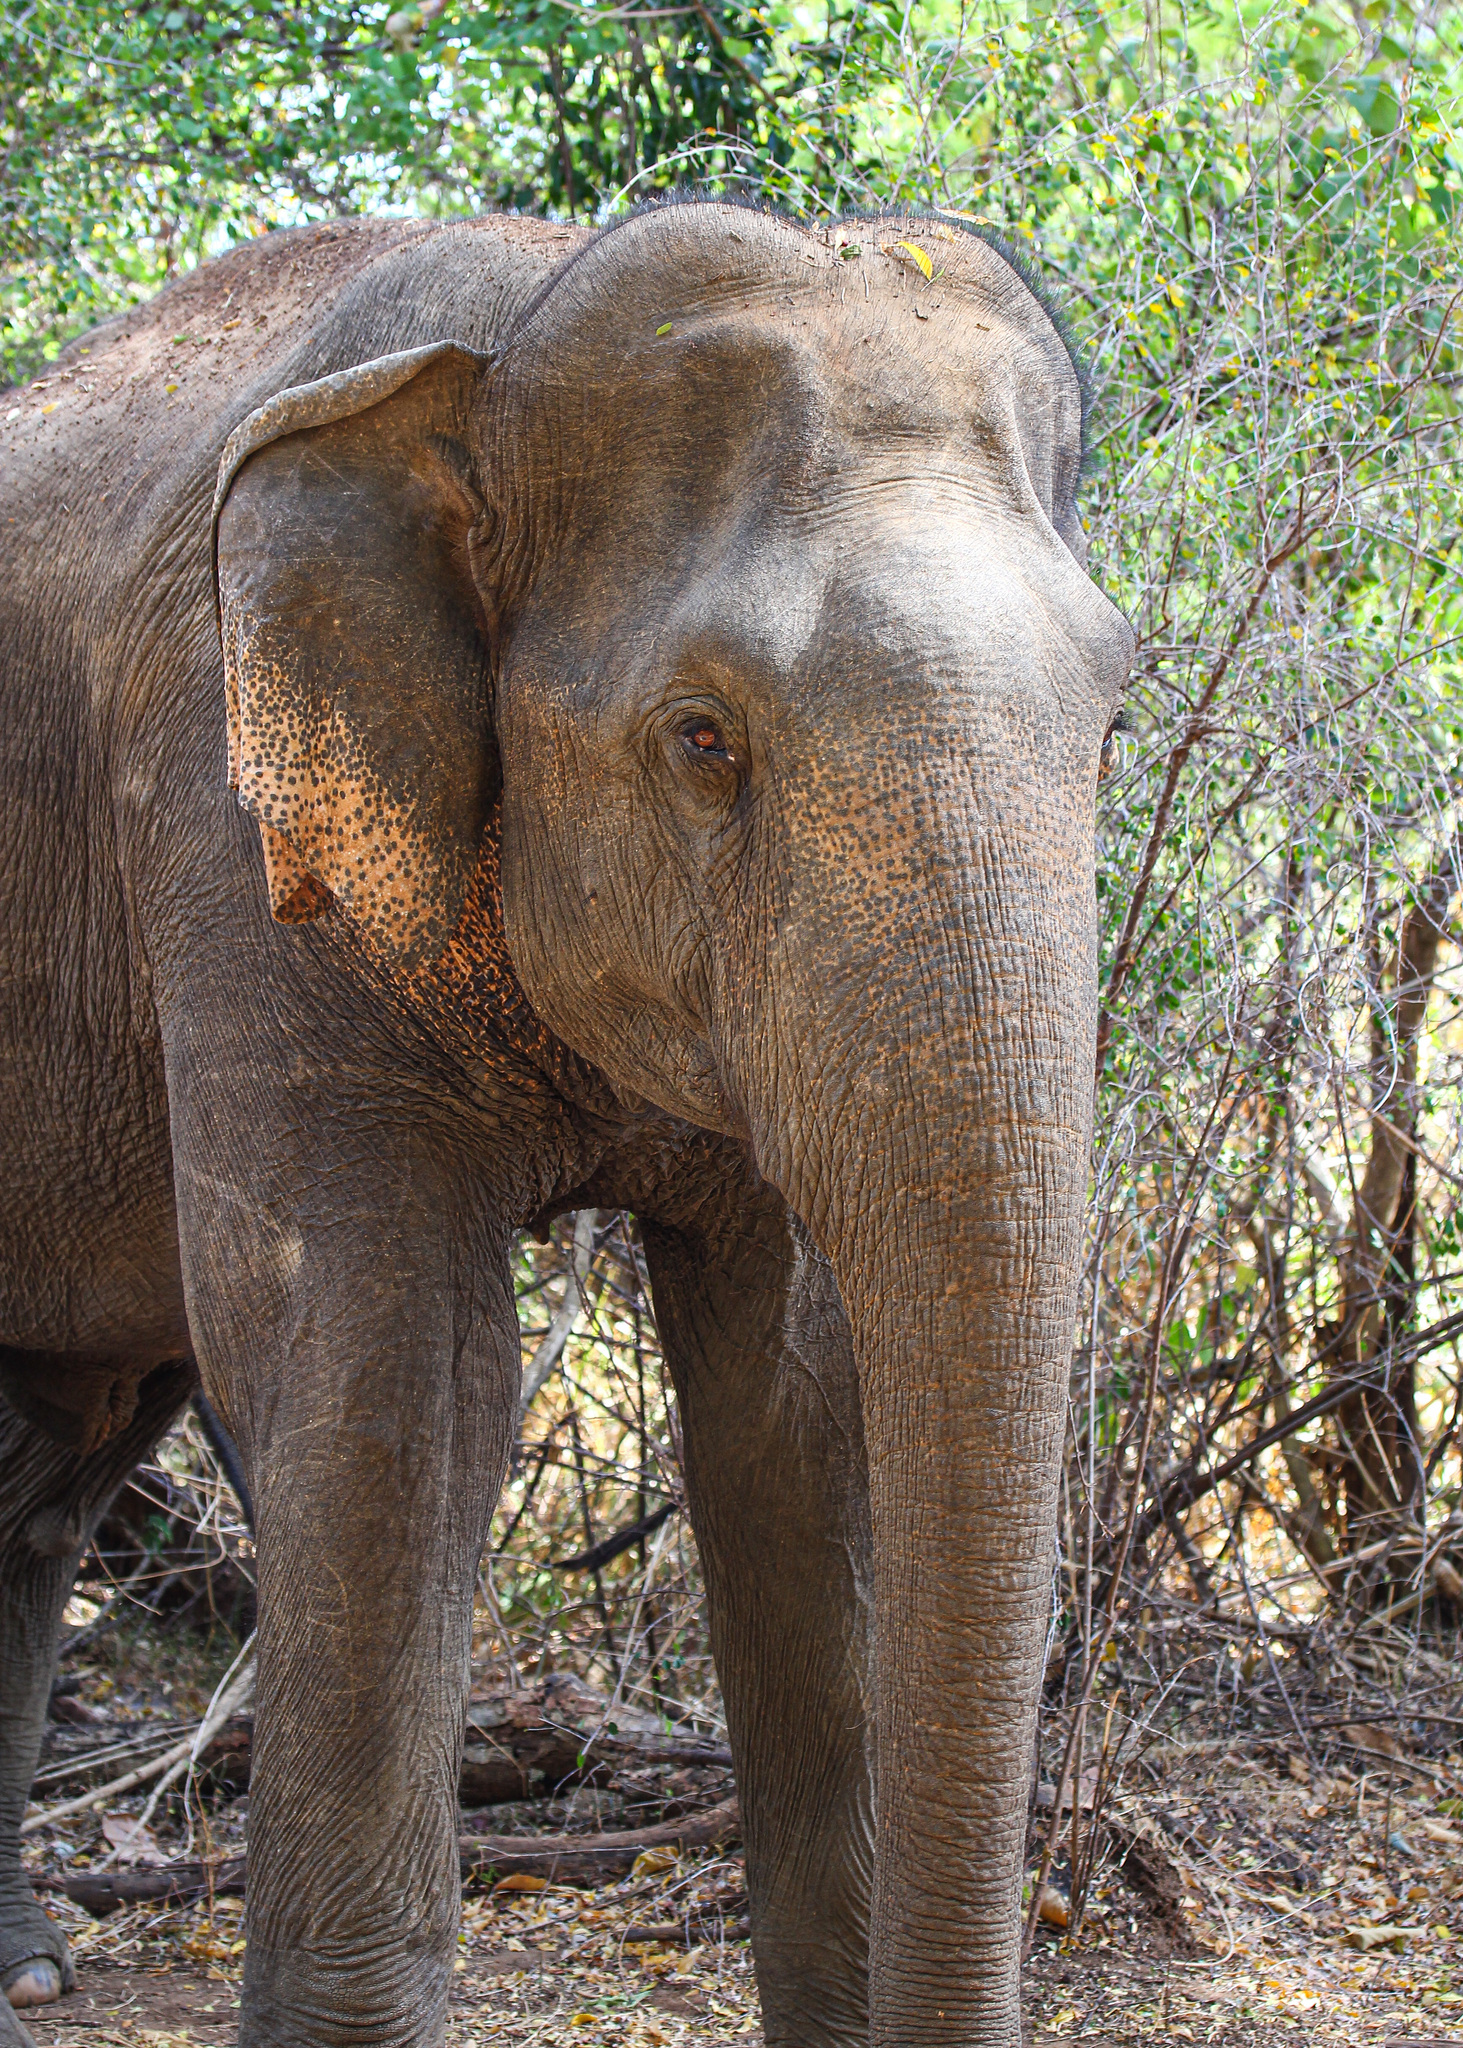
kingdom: Animalia
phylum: Chordata
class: Mammalia
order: Proboscidea
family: Elephantidae
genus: Elephas
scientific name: Elephas maximus
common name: Asian elephant
